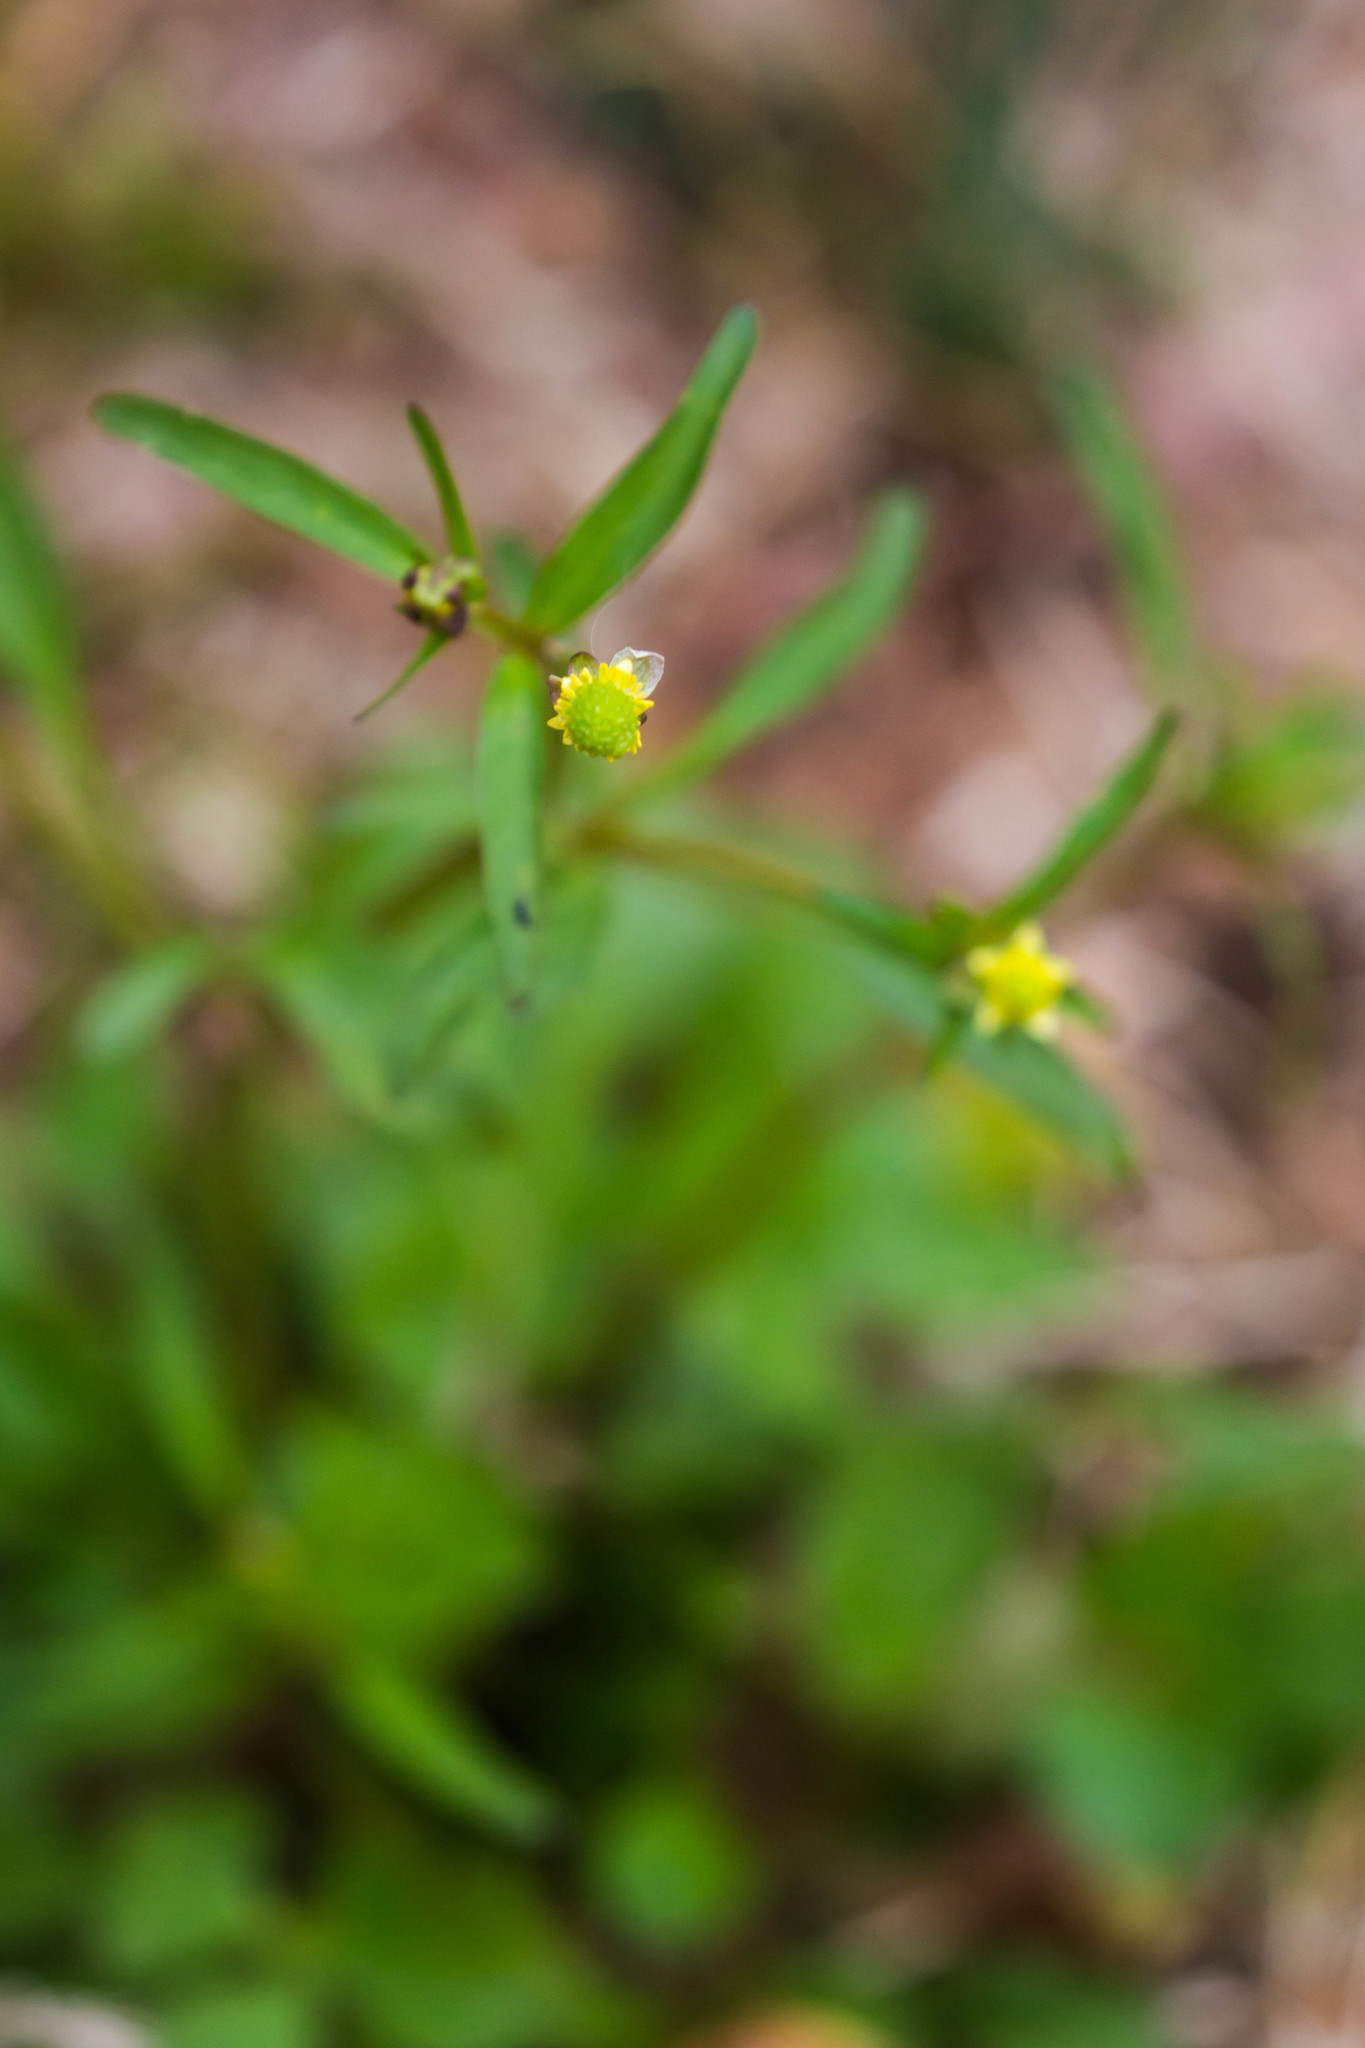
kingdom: Plantae
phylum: Tracheophyta
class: Magnoliopsida
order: Ranunculales
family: Ranunculaceae
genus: Ranunculus
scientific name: Ranunculus abortivus
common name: Early wood buttercup
